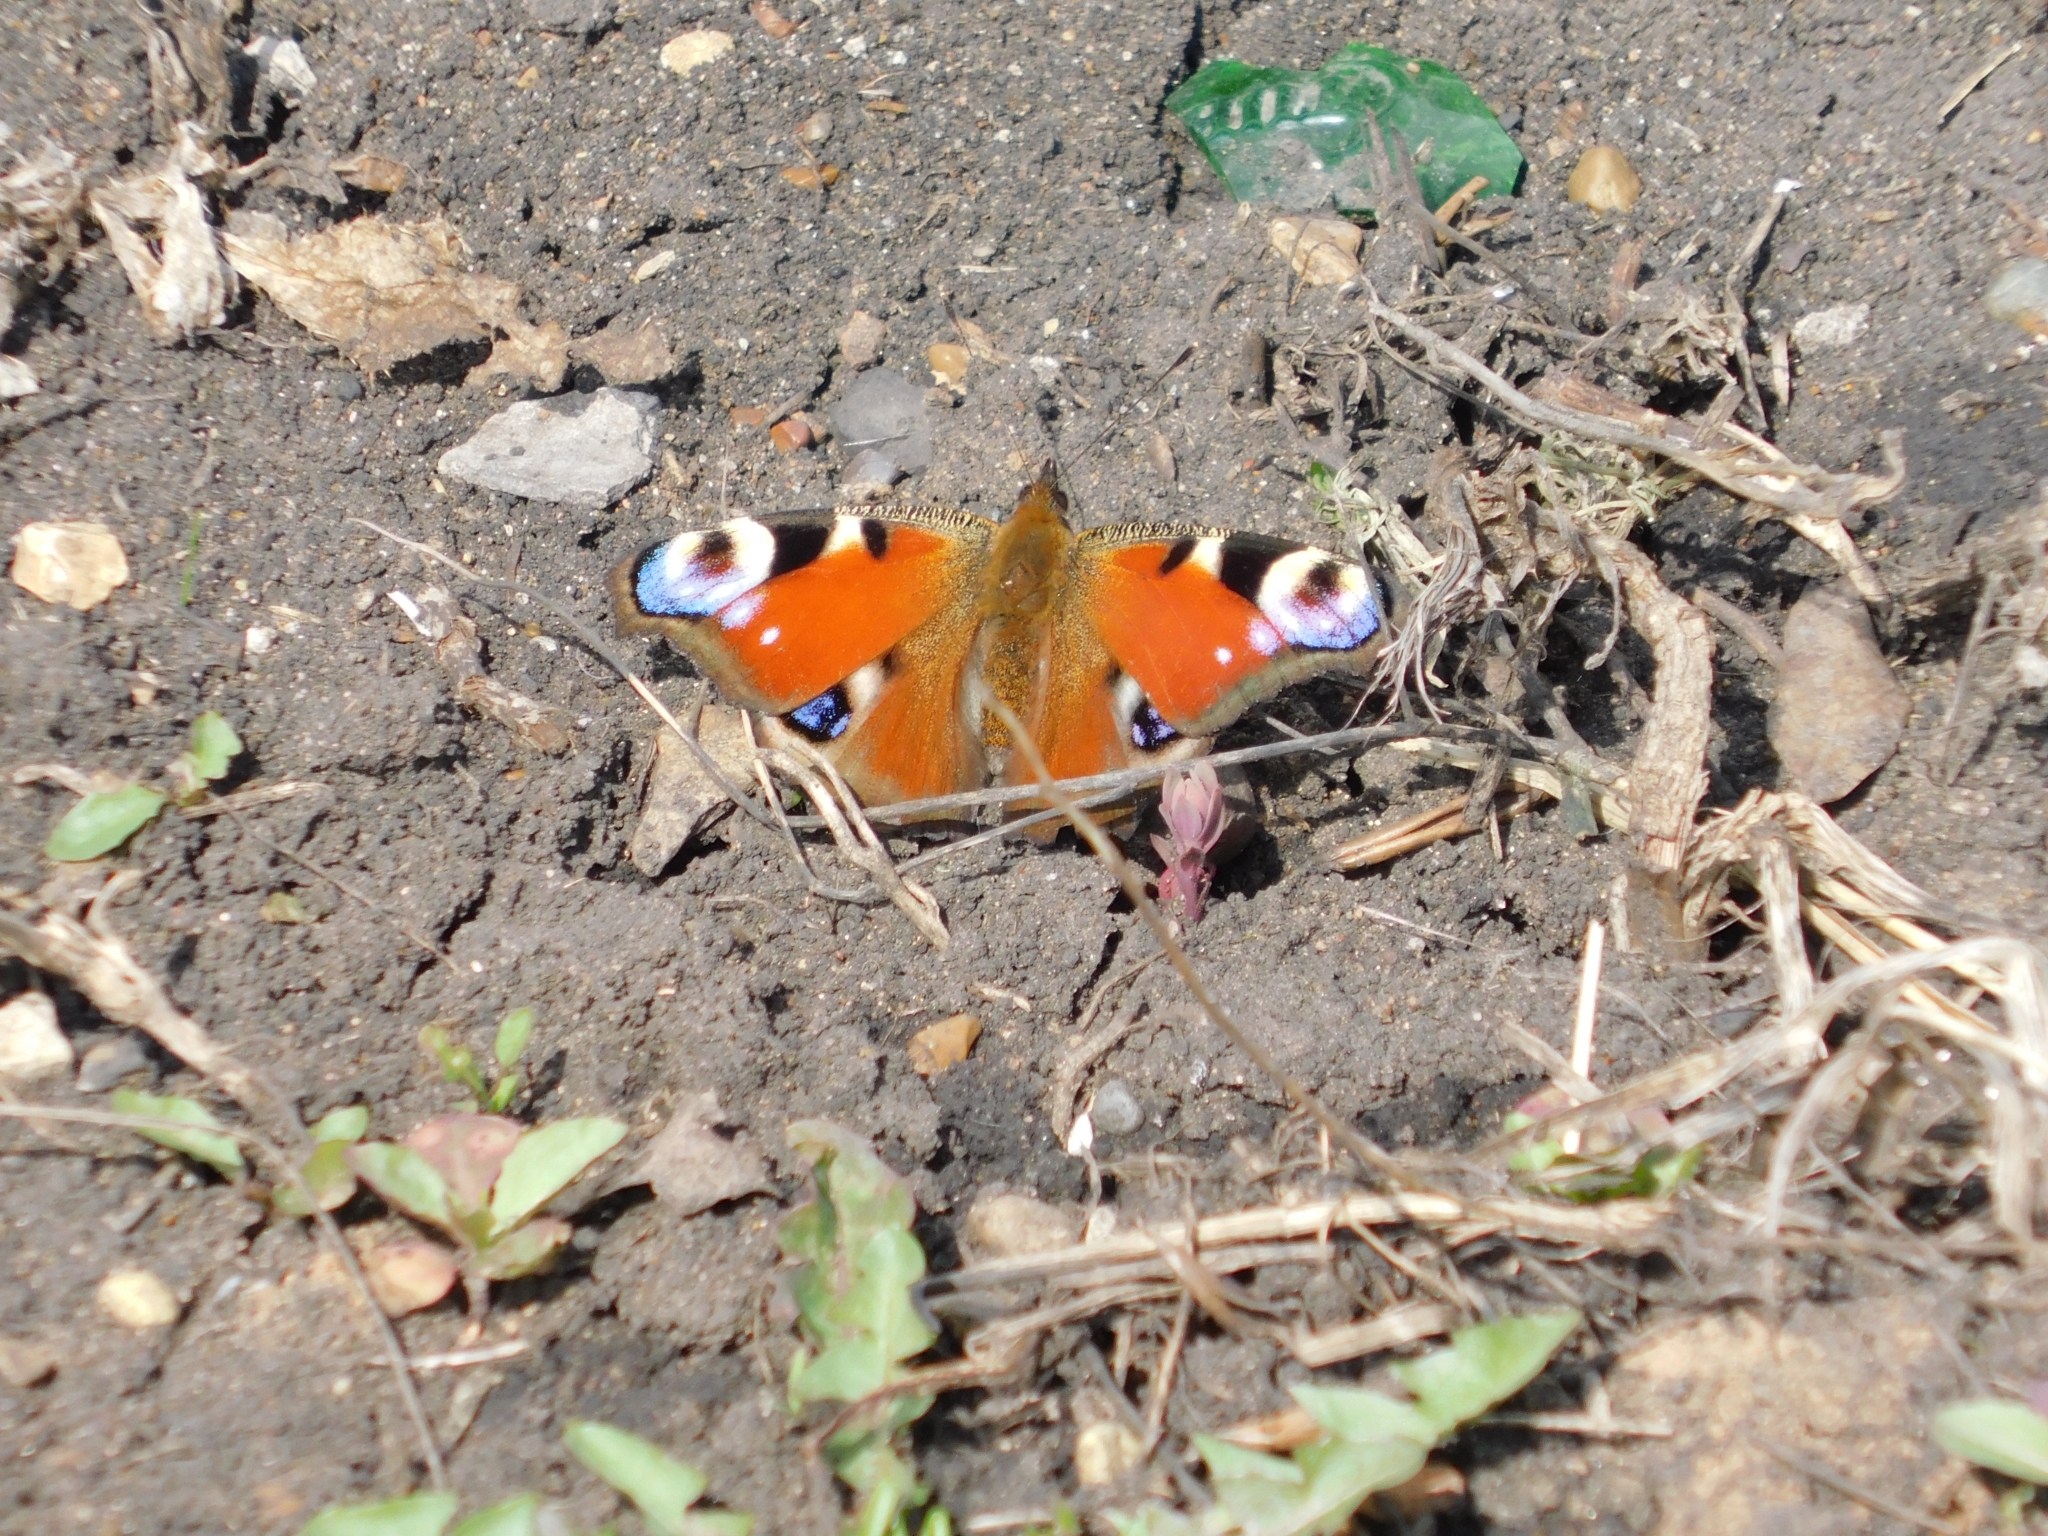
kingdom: Animalia
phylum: Arthropoda
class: Insecta
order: Lepidoptera
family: Nymphalidae
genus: Aglais
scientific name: Aglais io
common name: Peacock
